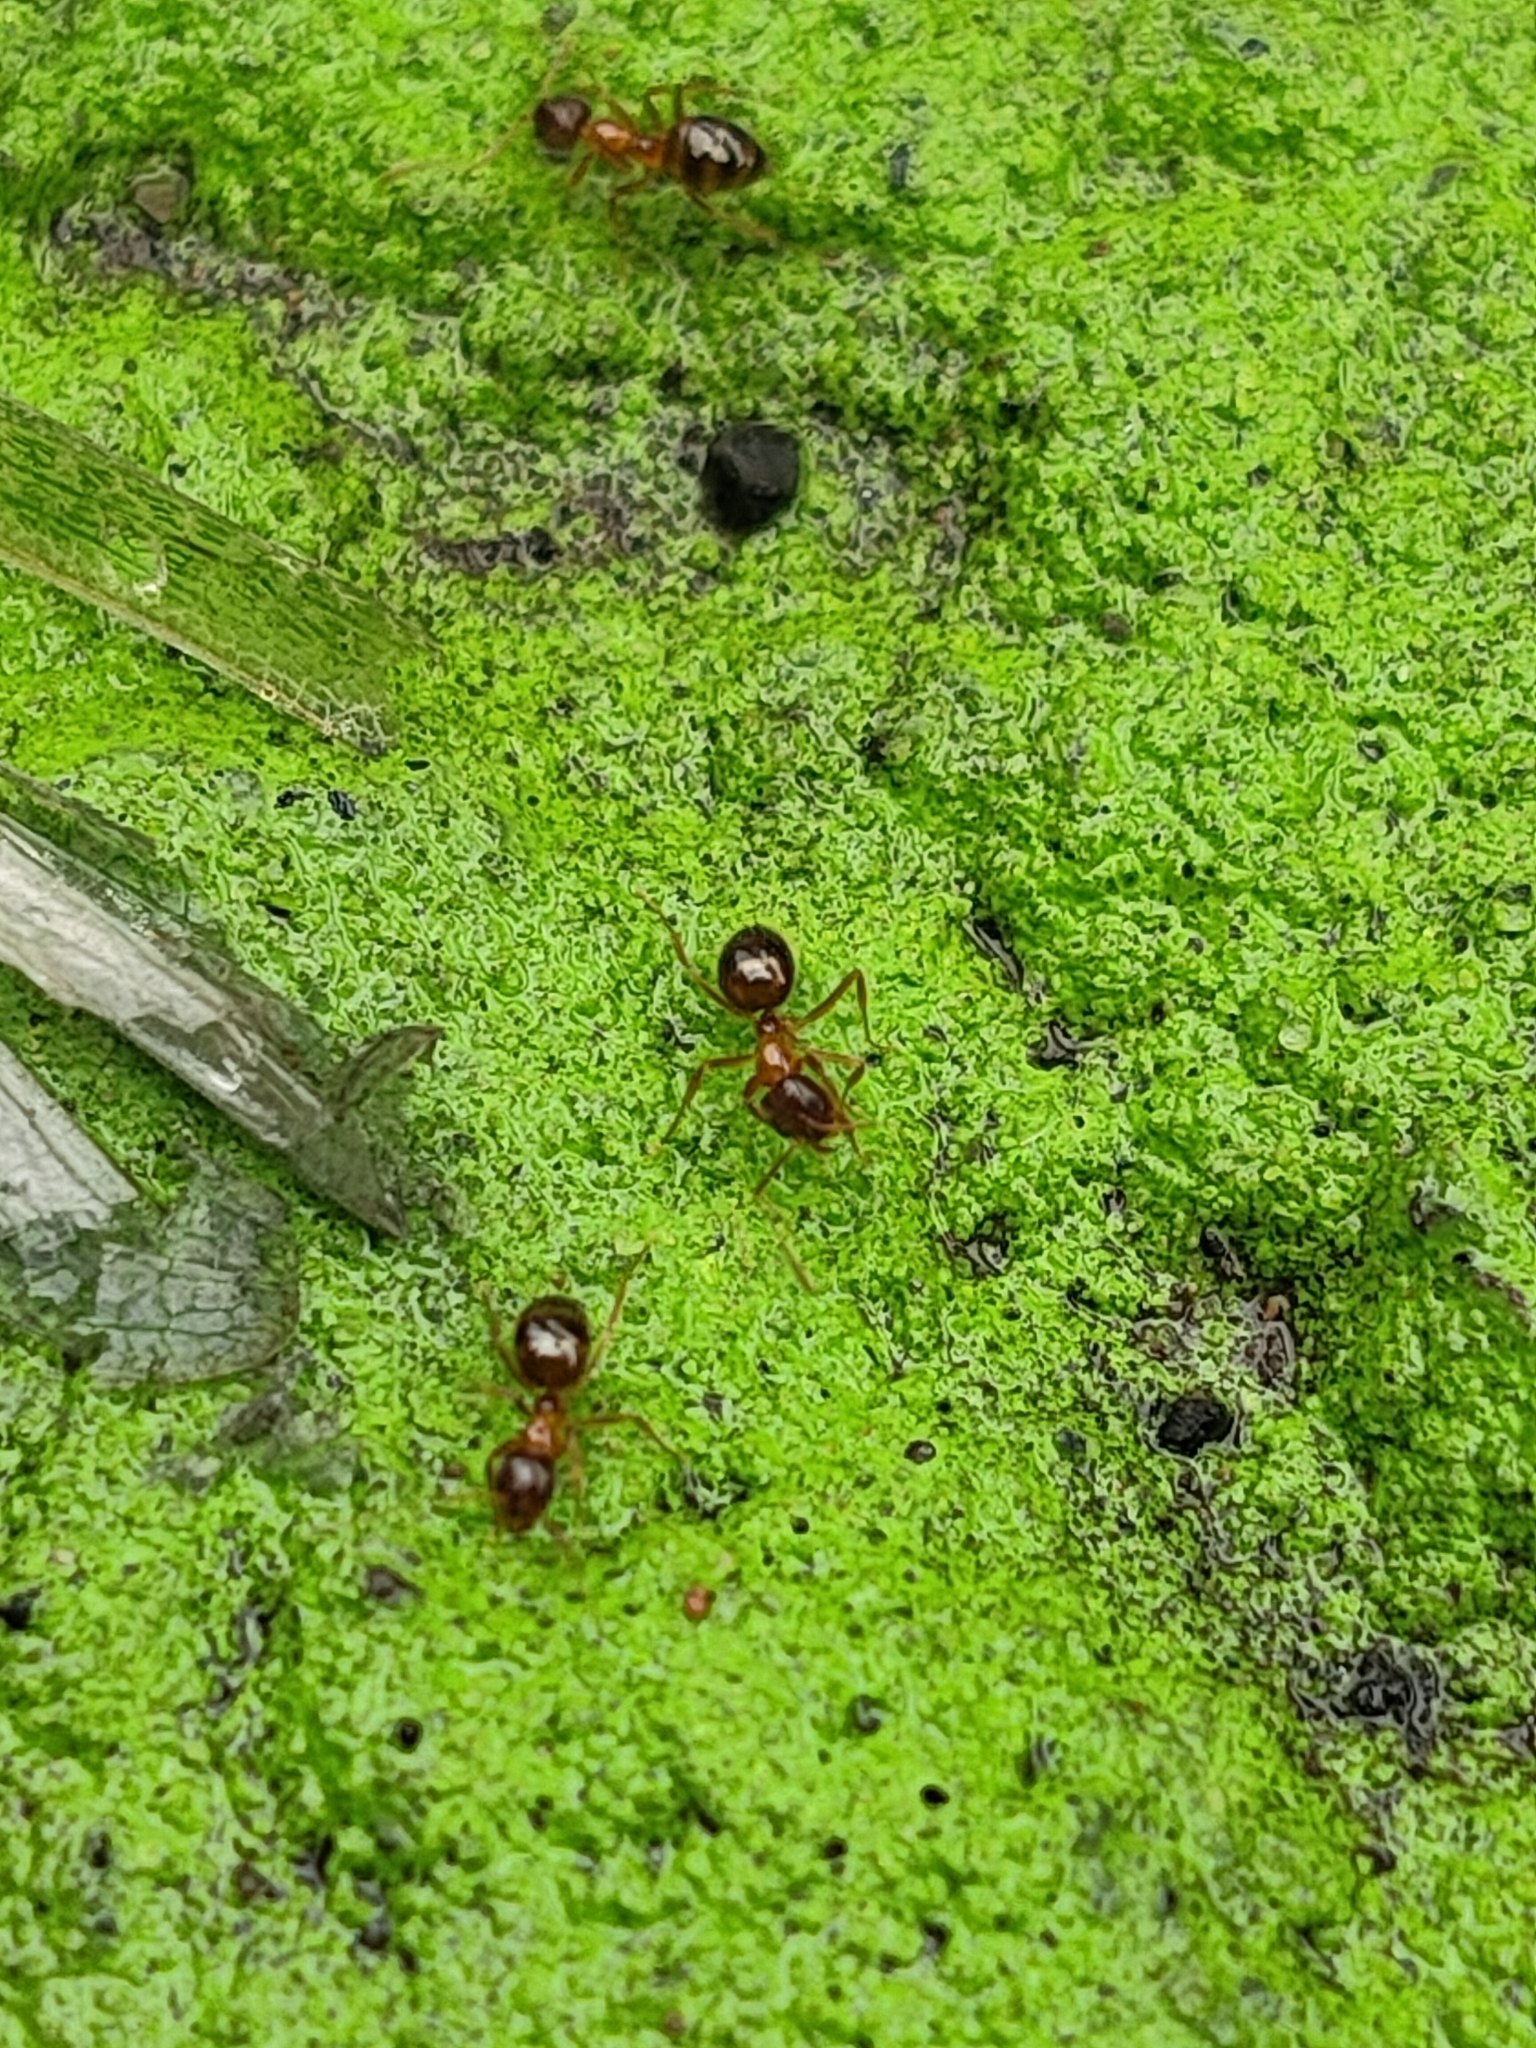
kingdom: Animalia
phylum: Arthropoda
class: Insecta
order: Hymenoptera
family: Formicidae
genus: Paratrechina
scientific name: Paratrechina flavipes
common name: Eastern asian formicine ant
